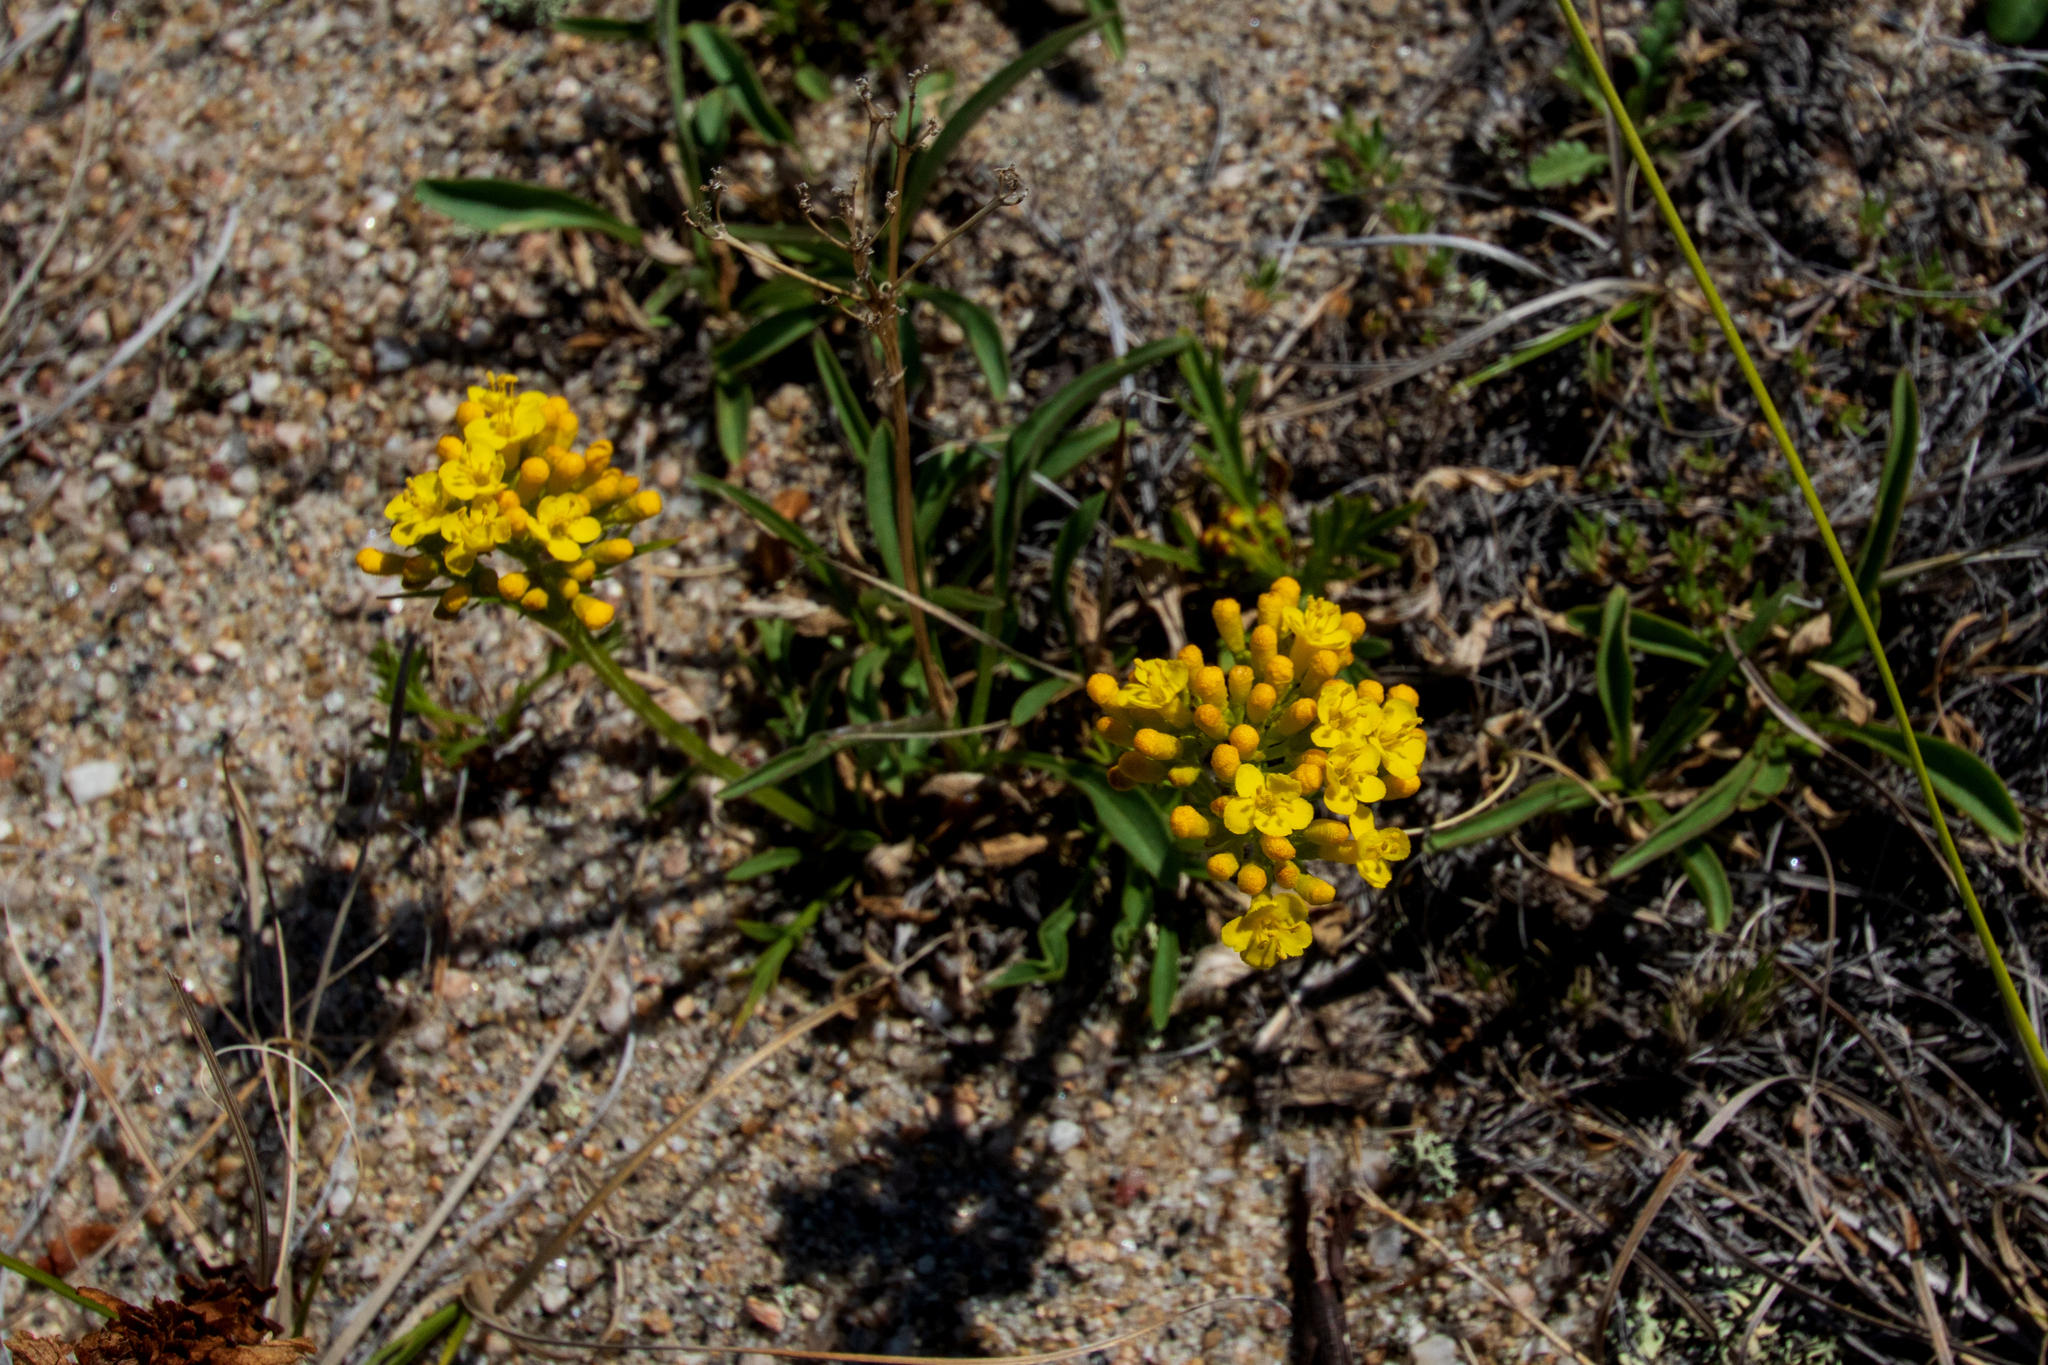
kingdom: Plantae
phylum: Tracheophyta
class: Magnoliopsida
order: Dipsacales
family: Caprifoliaceae
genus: Patrinia
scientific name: Patrinia sibirica
